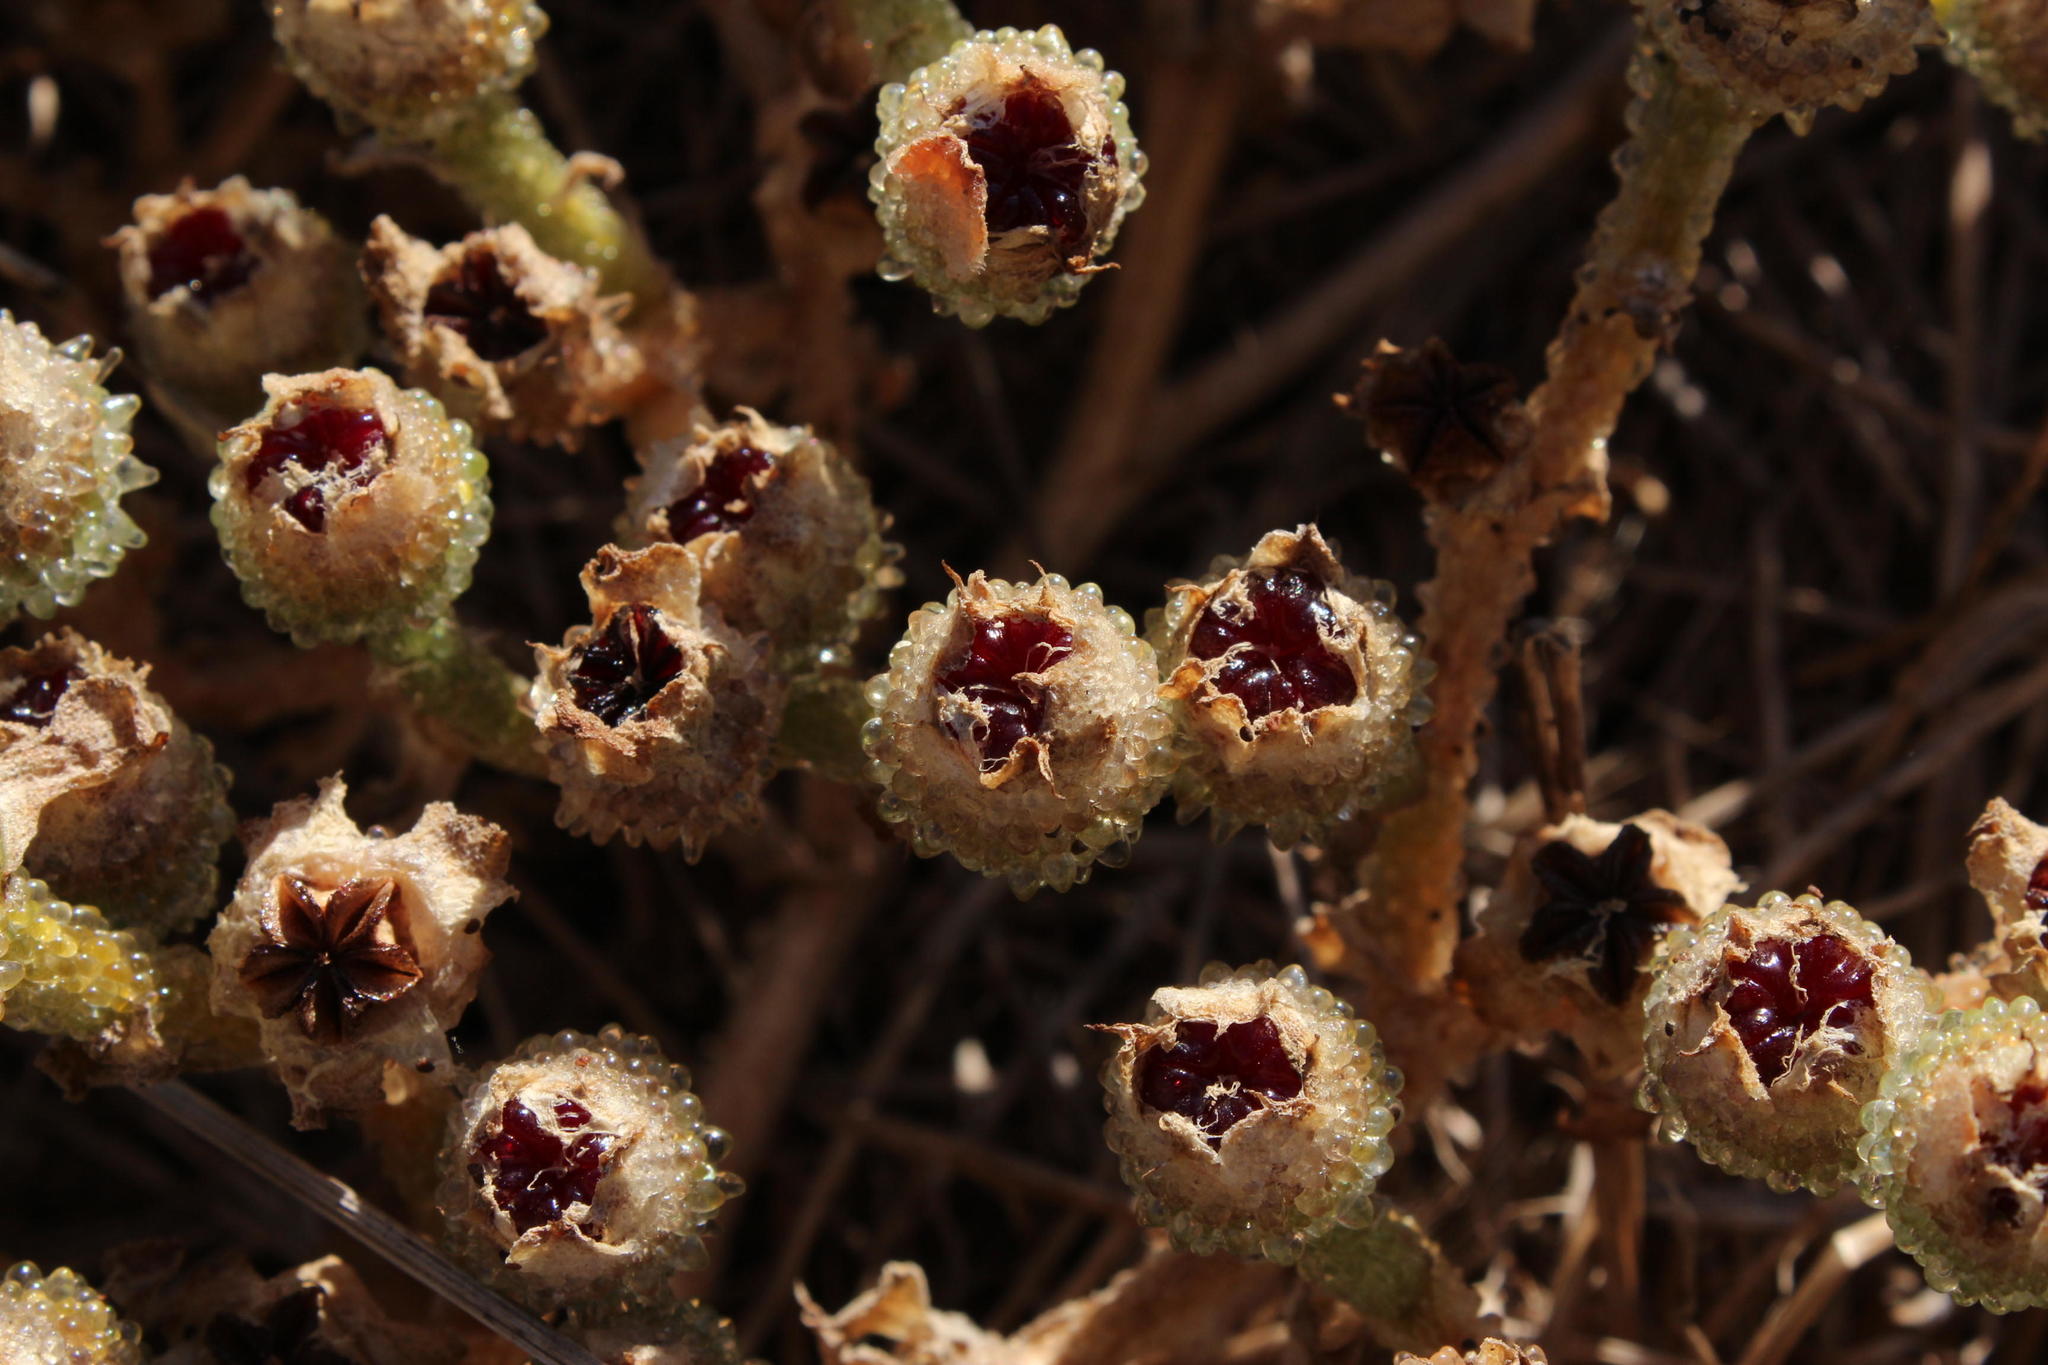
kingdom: Plantae
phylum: Tracheophyta
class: Magnoliopsida
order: Caryophyllales
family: Aizoaceae
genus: Mesembryanthemum
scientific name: Mesembryanthemum crystallinum
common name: Common iceplant
